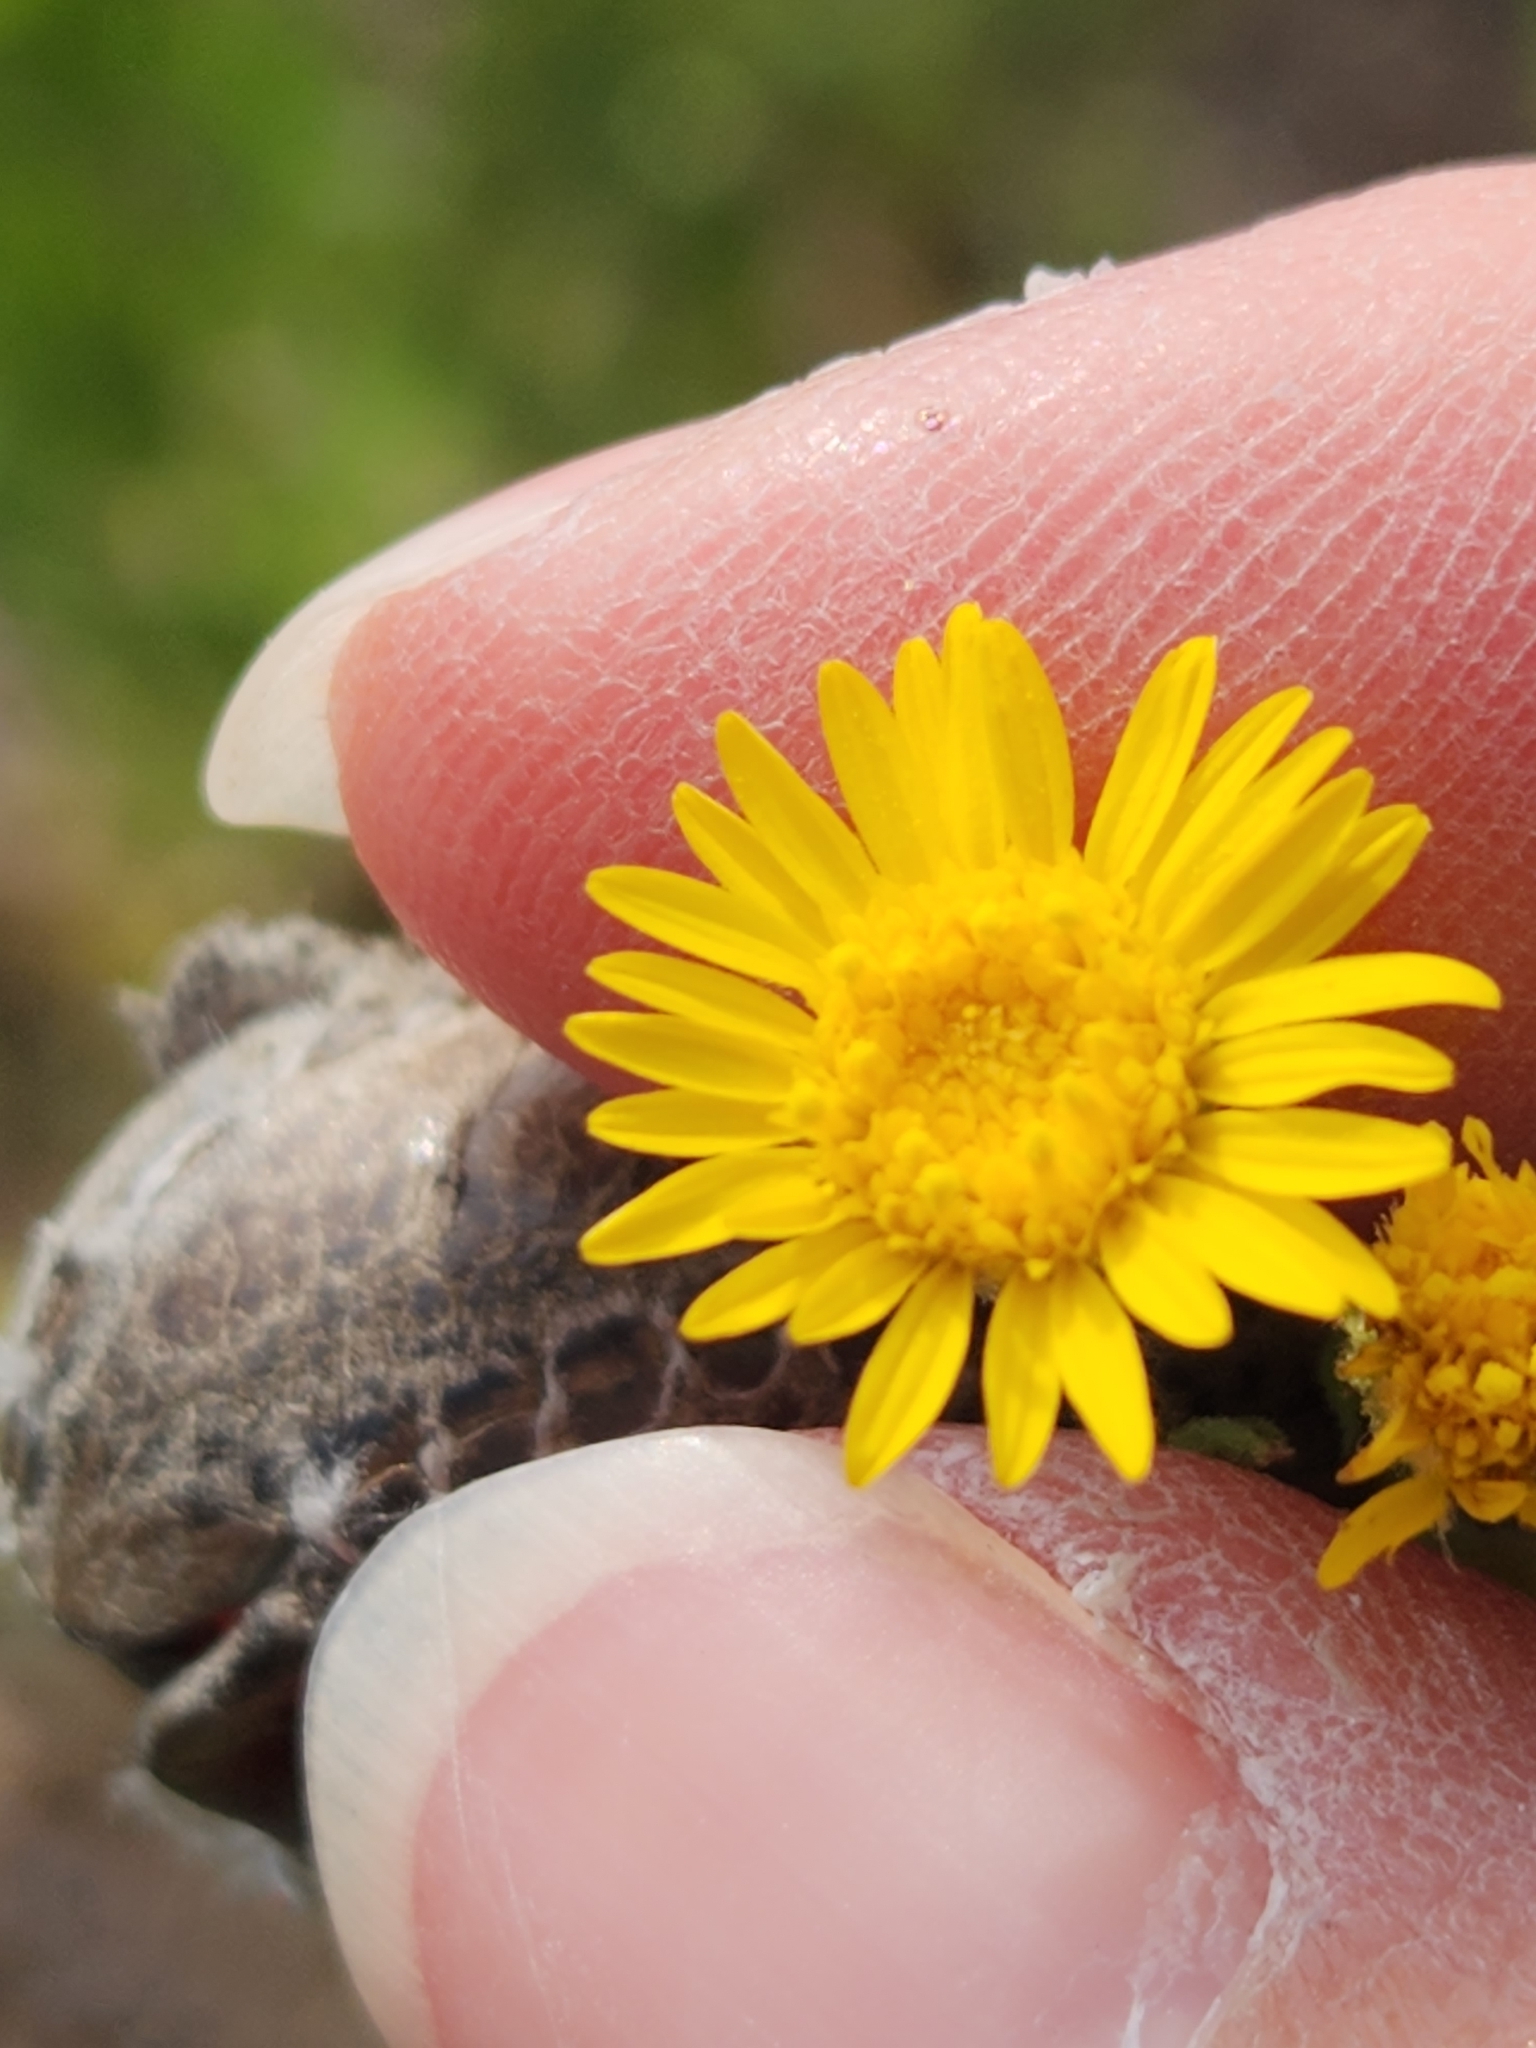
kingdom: Plantae
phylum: Tracheophyta
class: Magnoliopsida
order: Asterales
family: Asteraceae
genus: Heterotheca
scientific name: Heterotheca subaxillaris
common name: Camphorweed
